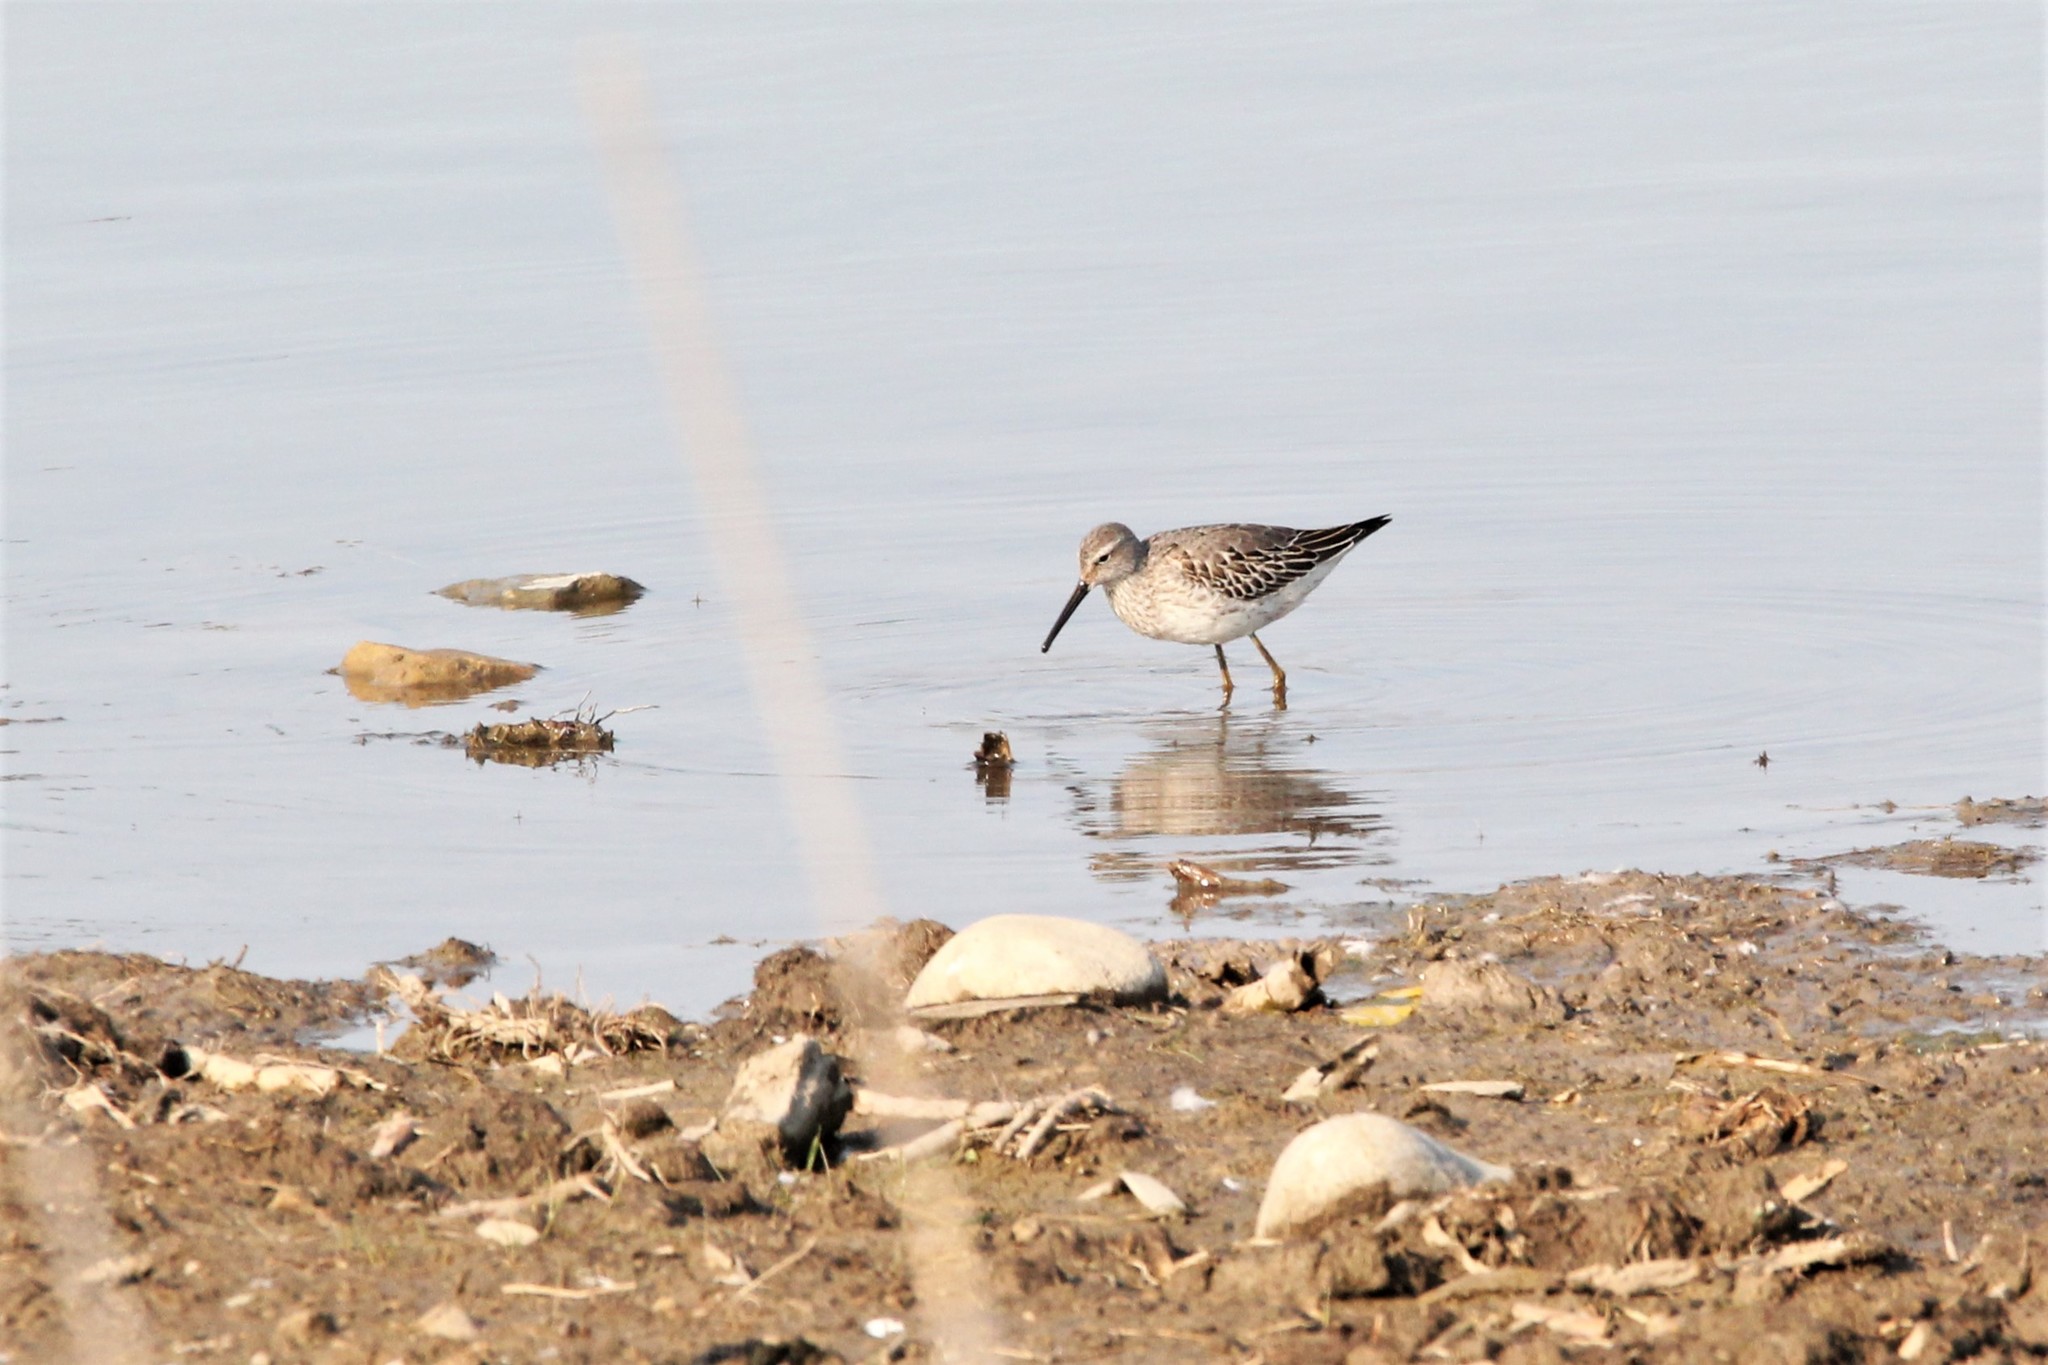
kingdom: Animalia
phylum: Chordata
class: Aves
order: Charadriiformes
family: Scolopacidae
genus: Calidris
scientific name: Calidris himantopus
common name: Stilt sandpiper
